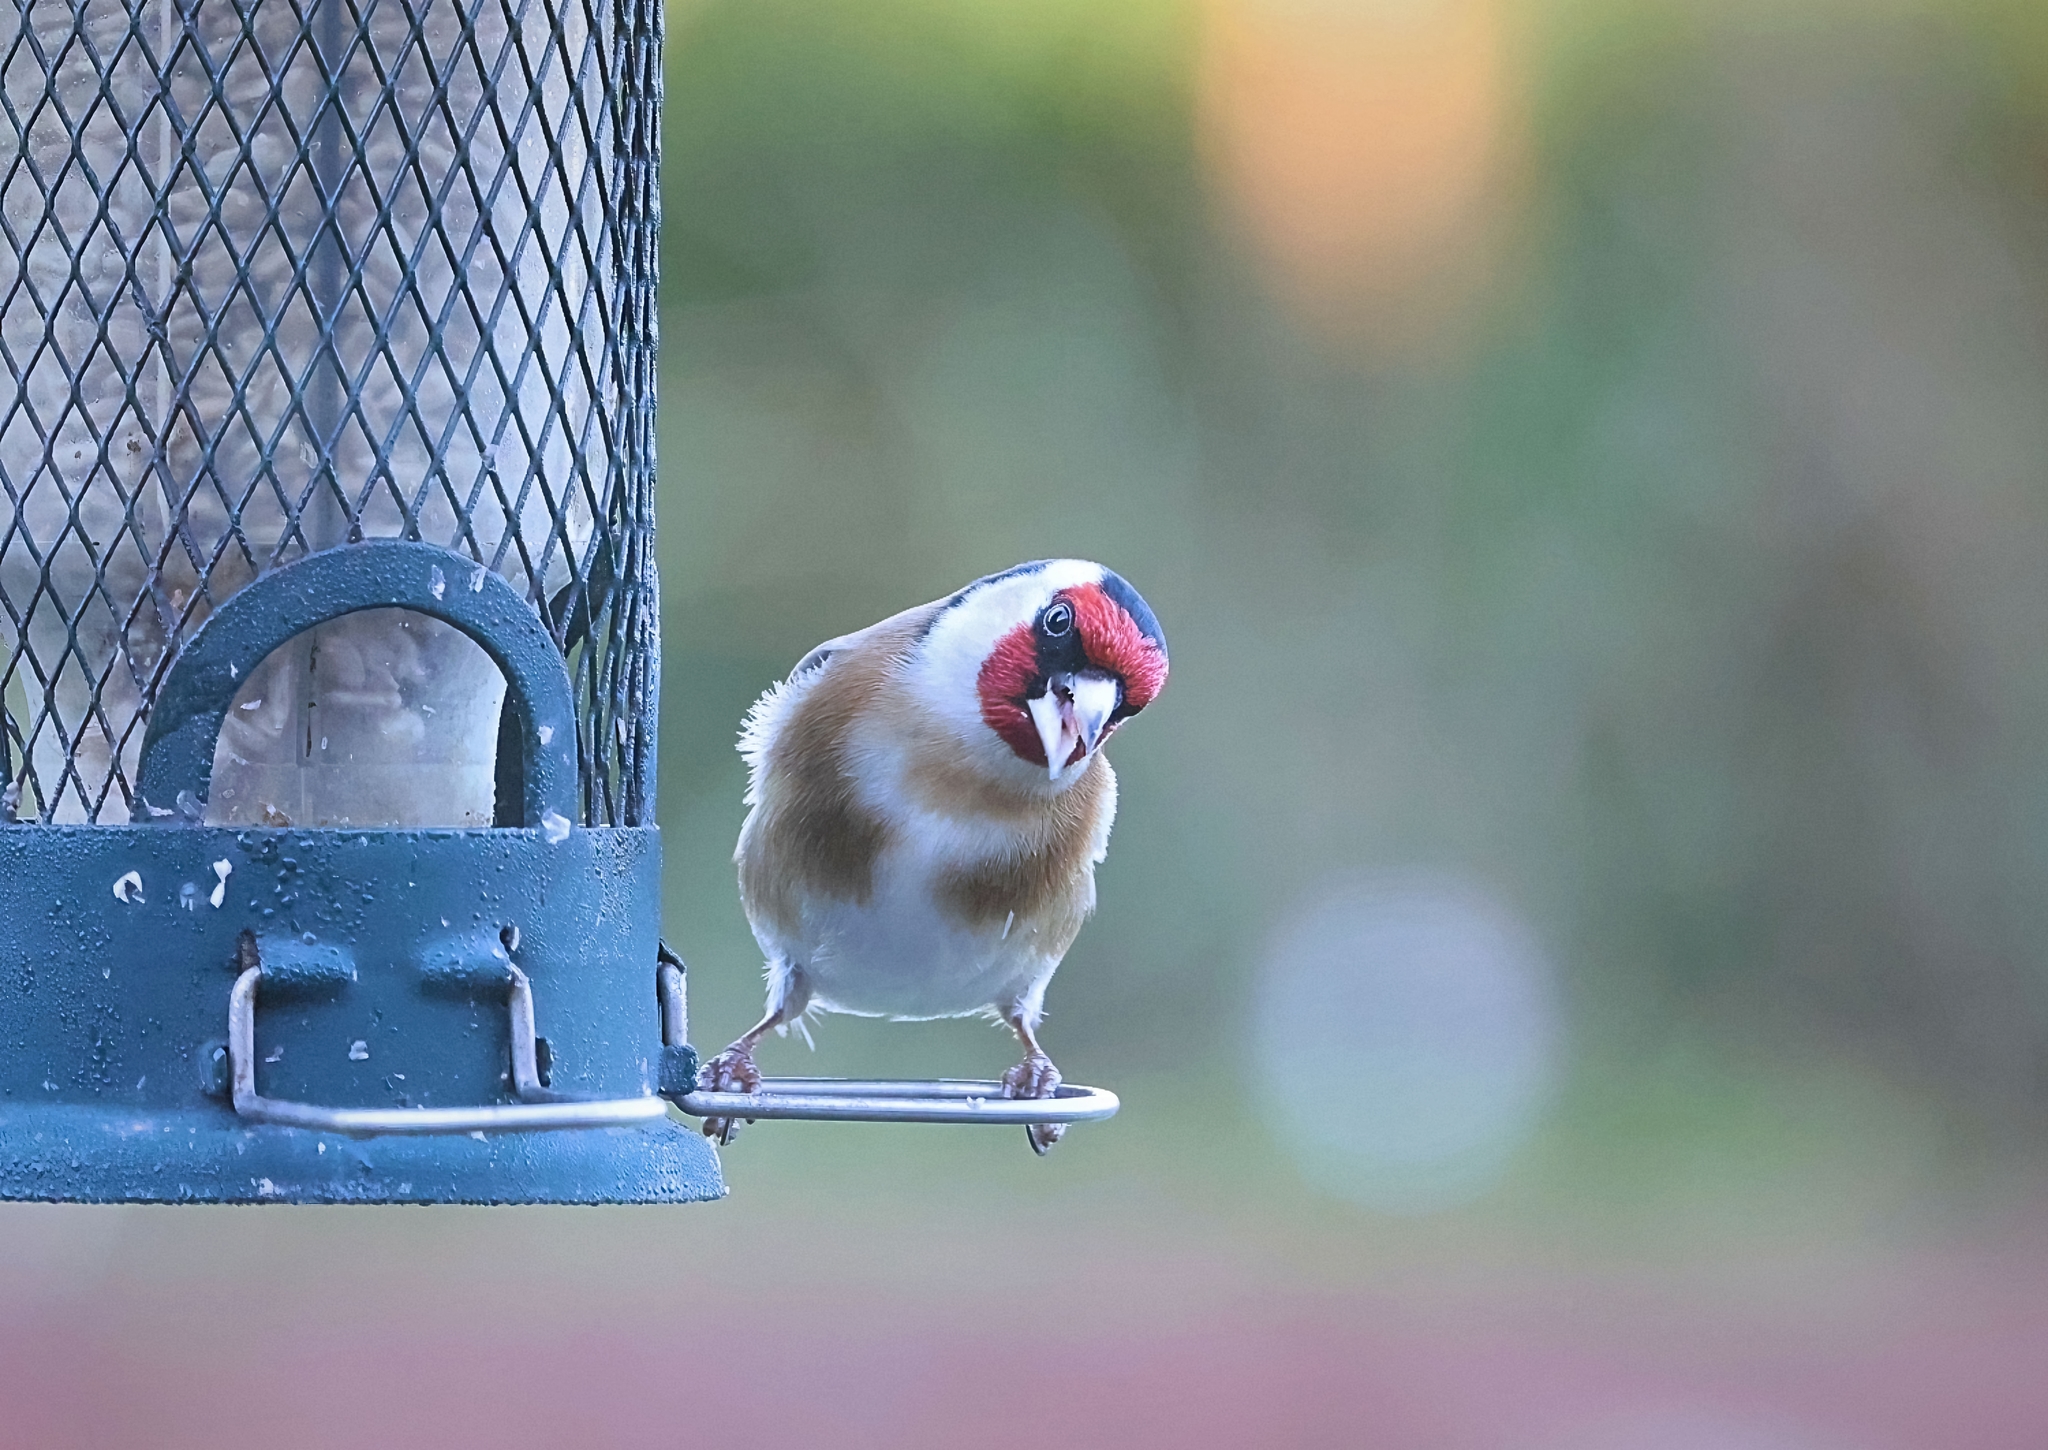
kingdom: Animalia
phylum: Chordata
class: Aves
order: Passeriformes
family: Fringillidae
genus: Carduelis
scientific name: Carduelis carduelis
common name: European goldfinch
